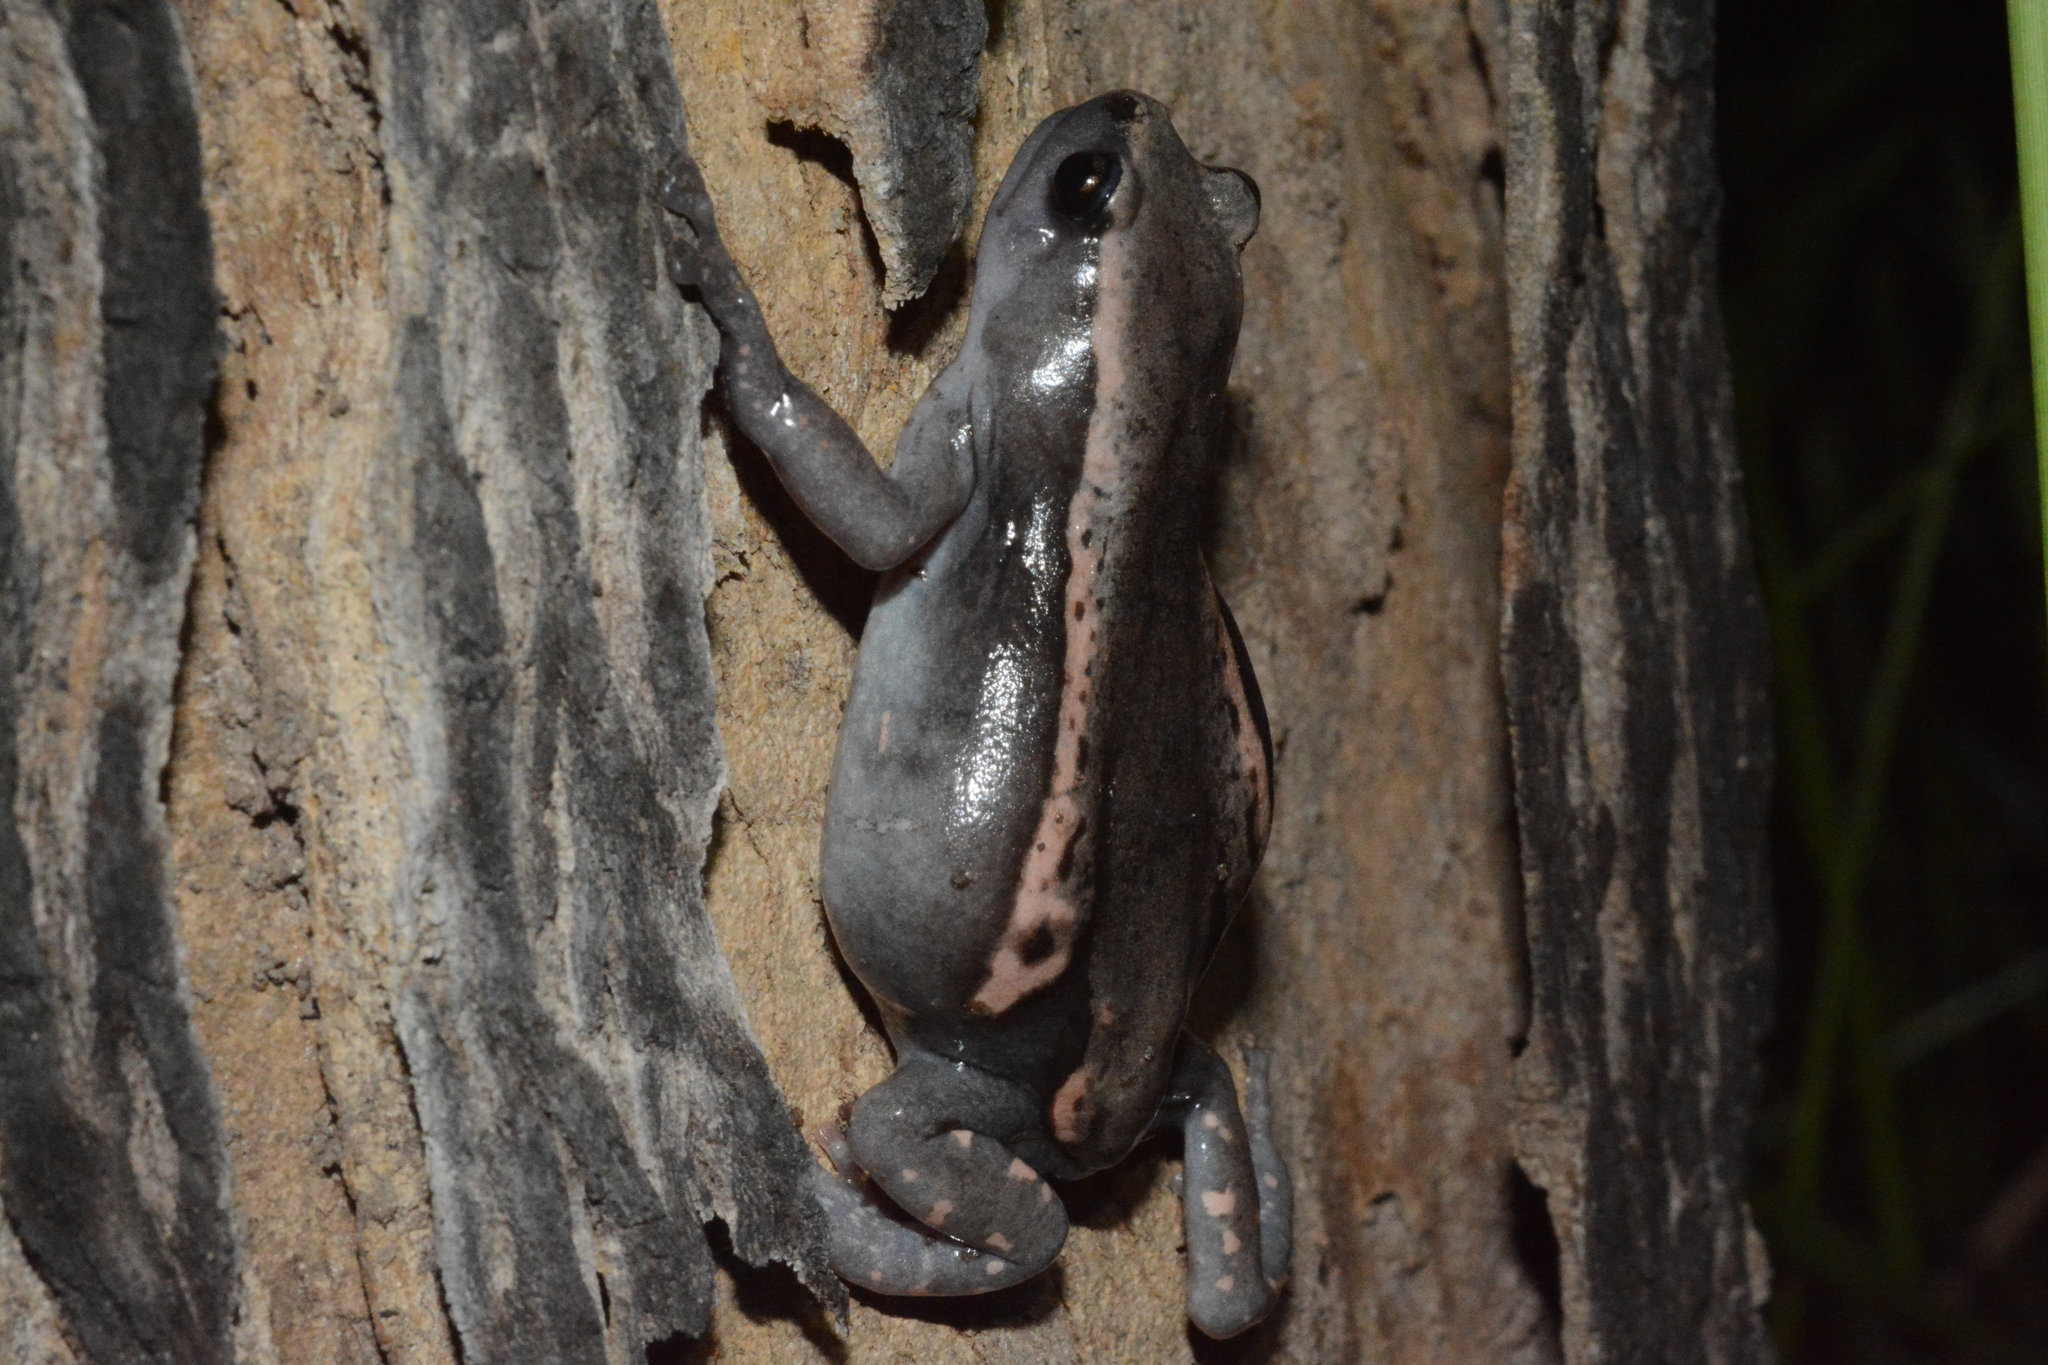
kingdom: Animalia
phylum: Chordata
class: Amphibia
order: Anura
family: Microhylidae
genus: Phrynomantis
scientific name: Phrynomantis bifasciatus
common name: Banded rubber frog
